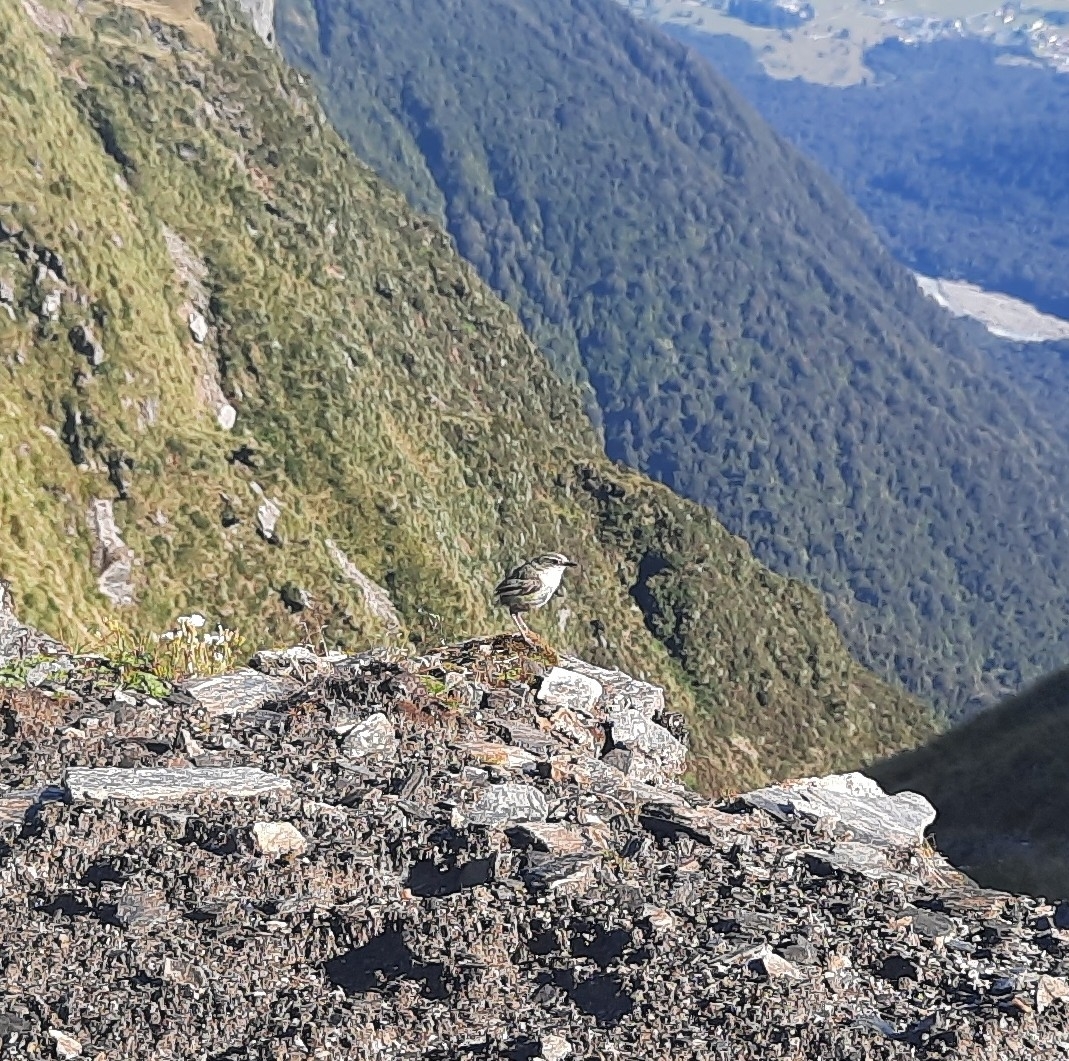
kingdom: Animalia
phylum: Chordata
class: Aves
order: Passeriformes
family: Acanthisittidae
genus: Xenicus
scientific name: Xenicus gilviventris
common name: New zealand rockwren
